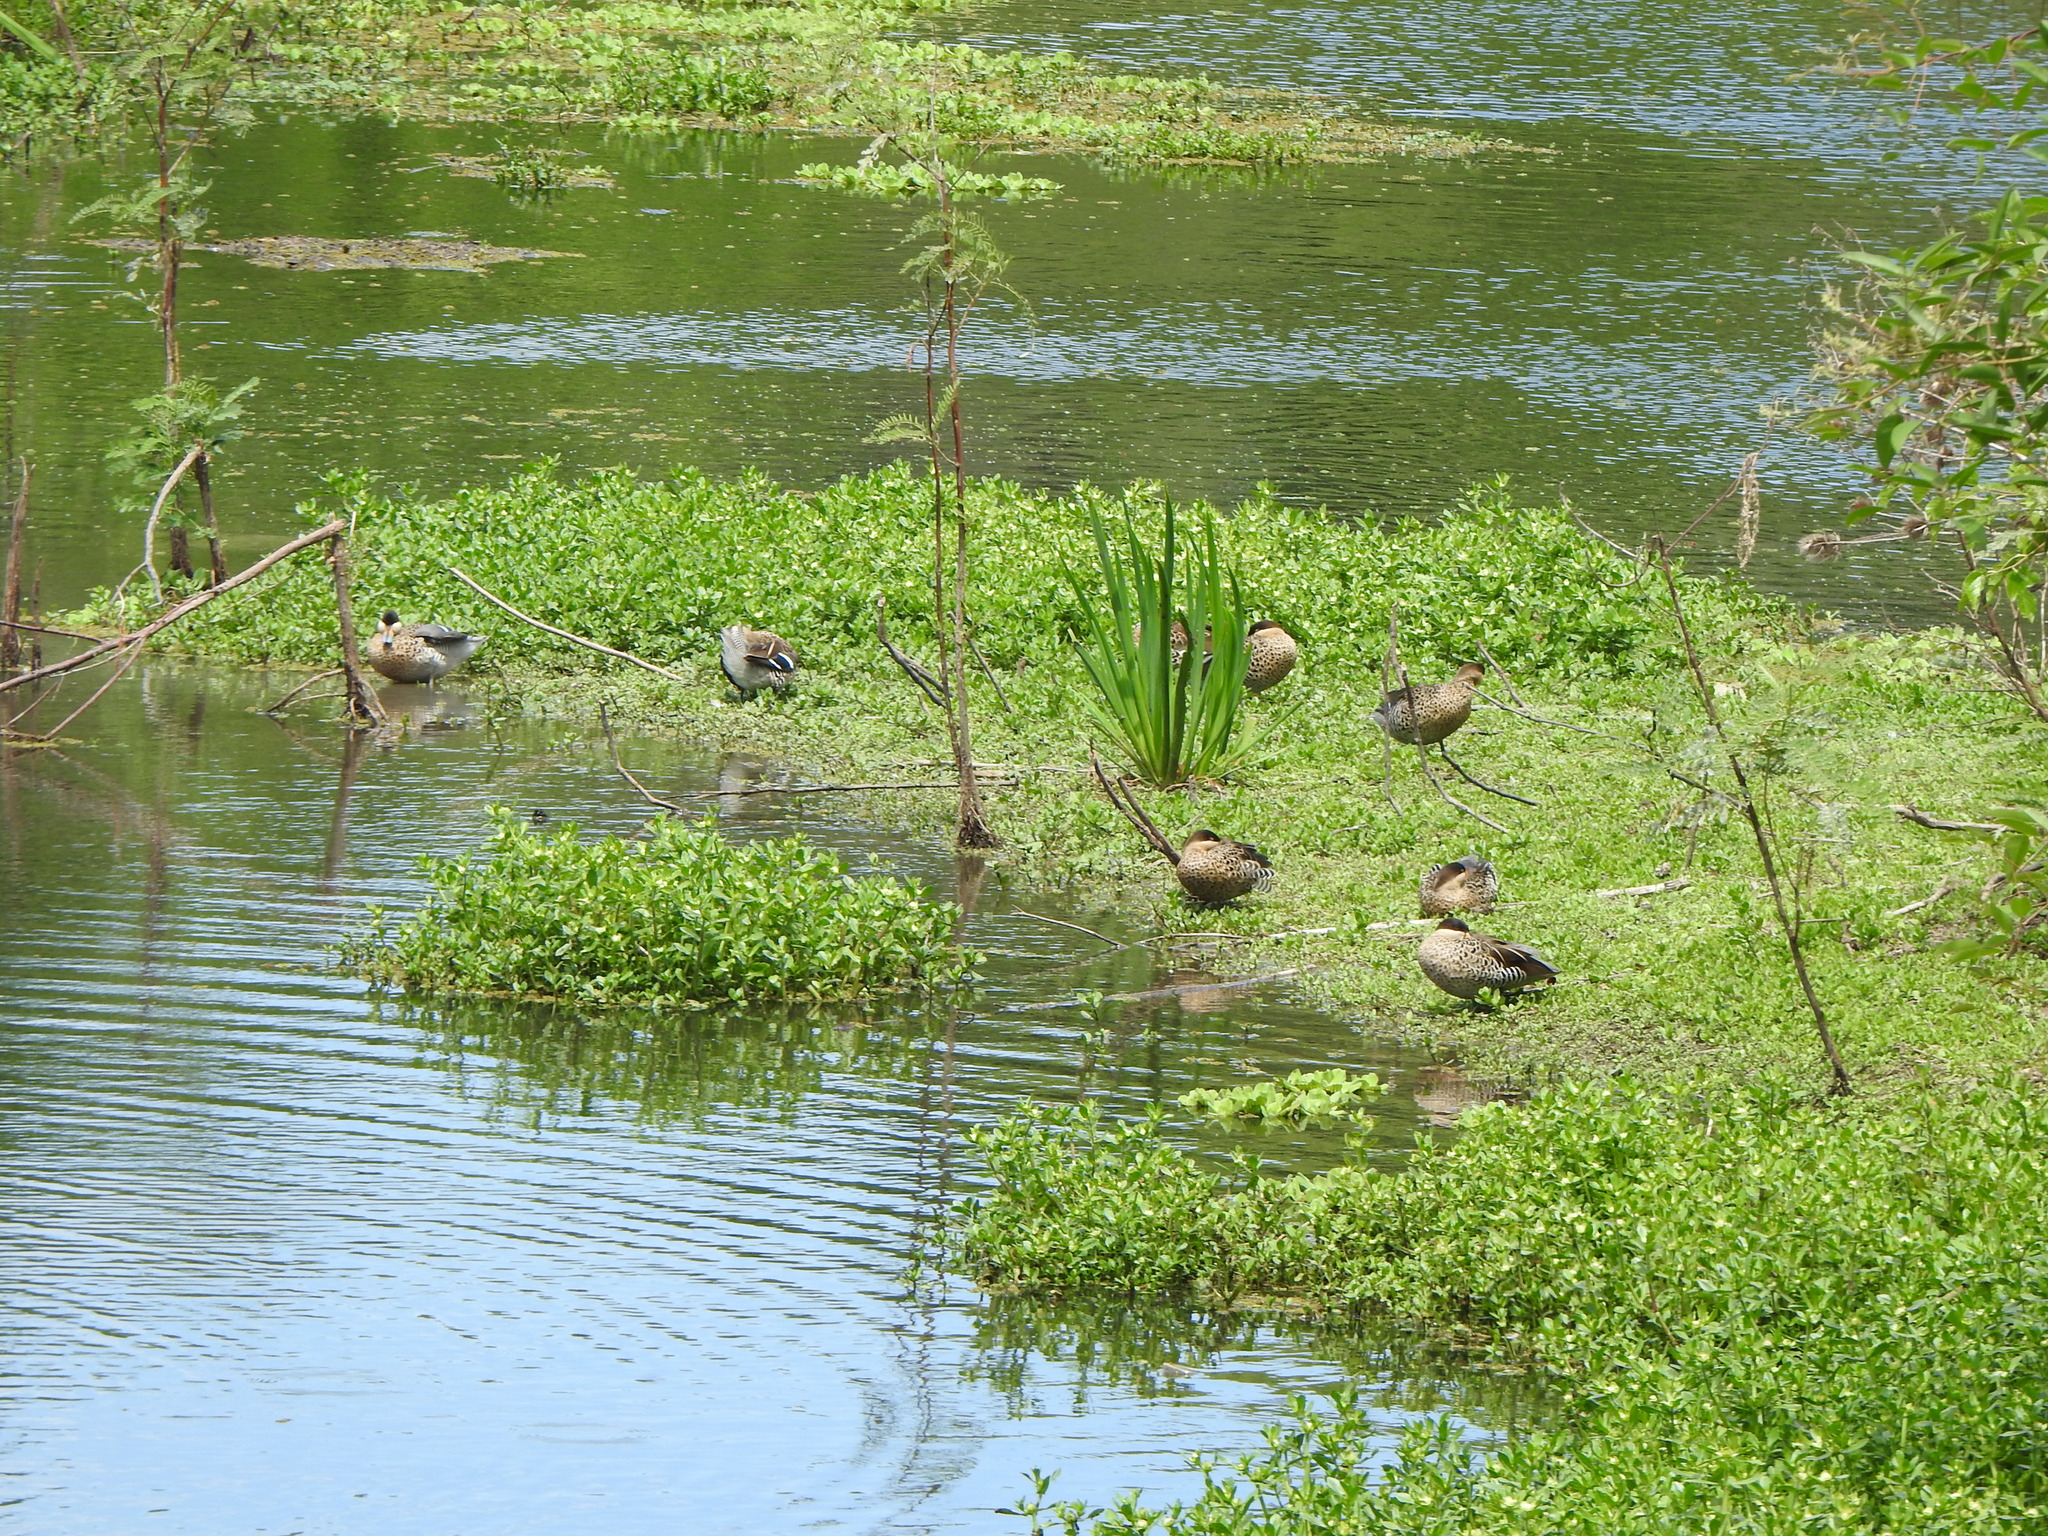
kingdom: Animalia
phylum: Chordata
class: Aves
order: Anseriformes
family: Anatidae
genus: Anas
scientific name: Anas bahamensis
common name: White-cheeked pintail
